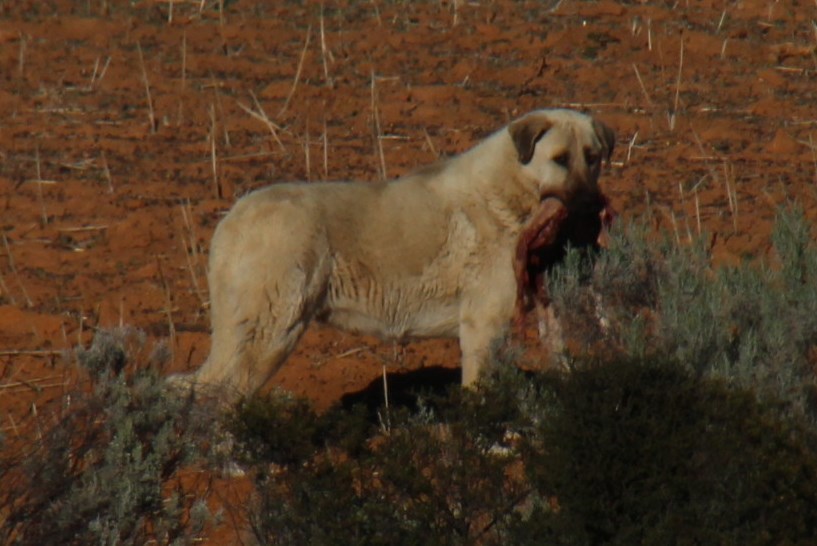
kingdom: Animalia
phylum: Chordata
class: Mammalia
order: Carnivora
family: Canidae
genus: Canis
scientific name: Canis lupus
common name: Gray wolf
